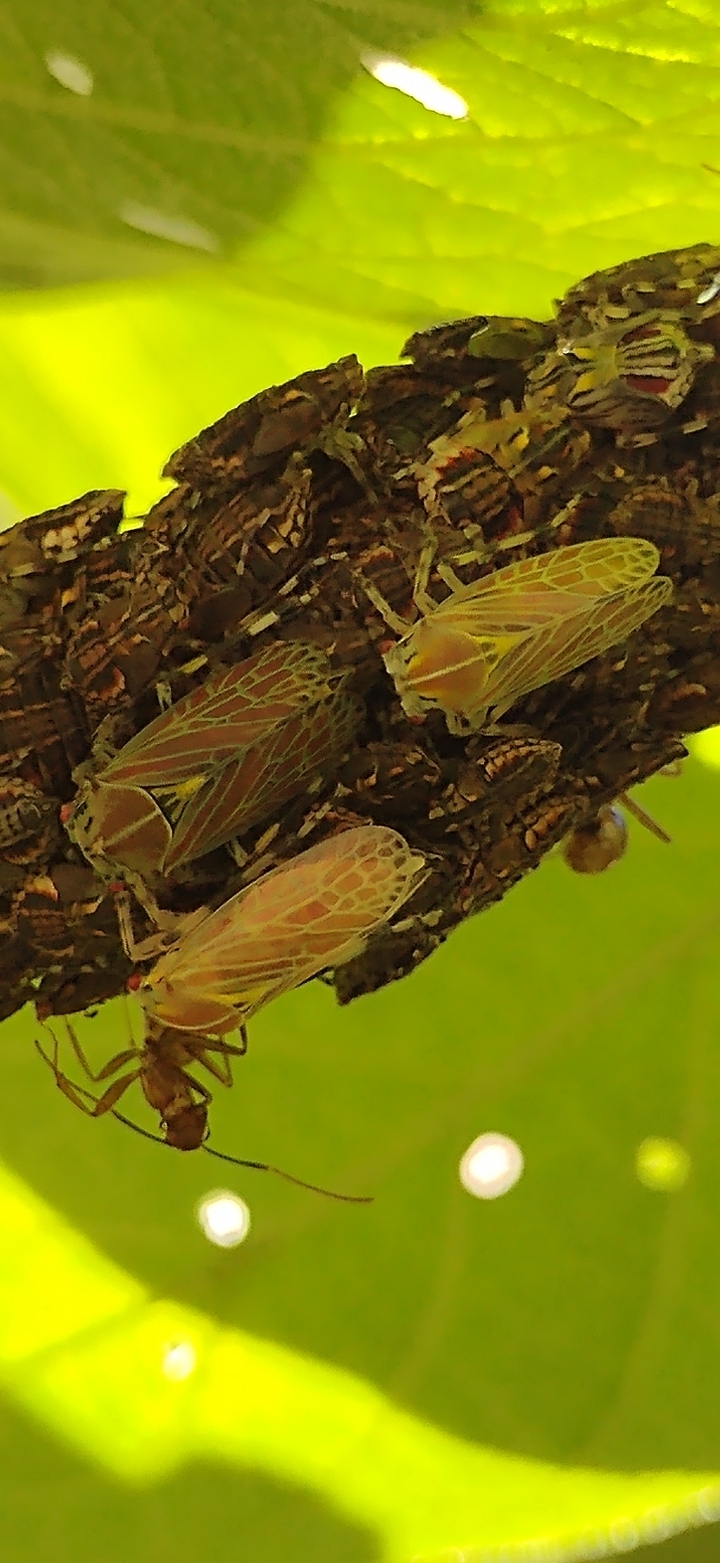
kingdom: Animalia
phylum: Arthropoda
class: Insecta
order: Hemiptera
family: Aetalionidae
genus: Aetalion
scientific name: Aetalion reticulatum
